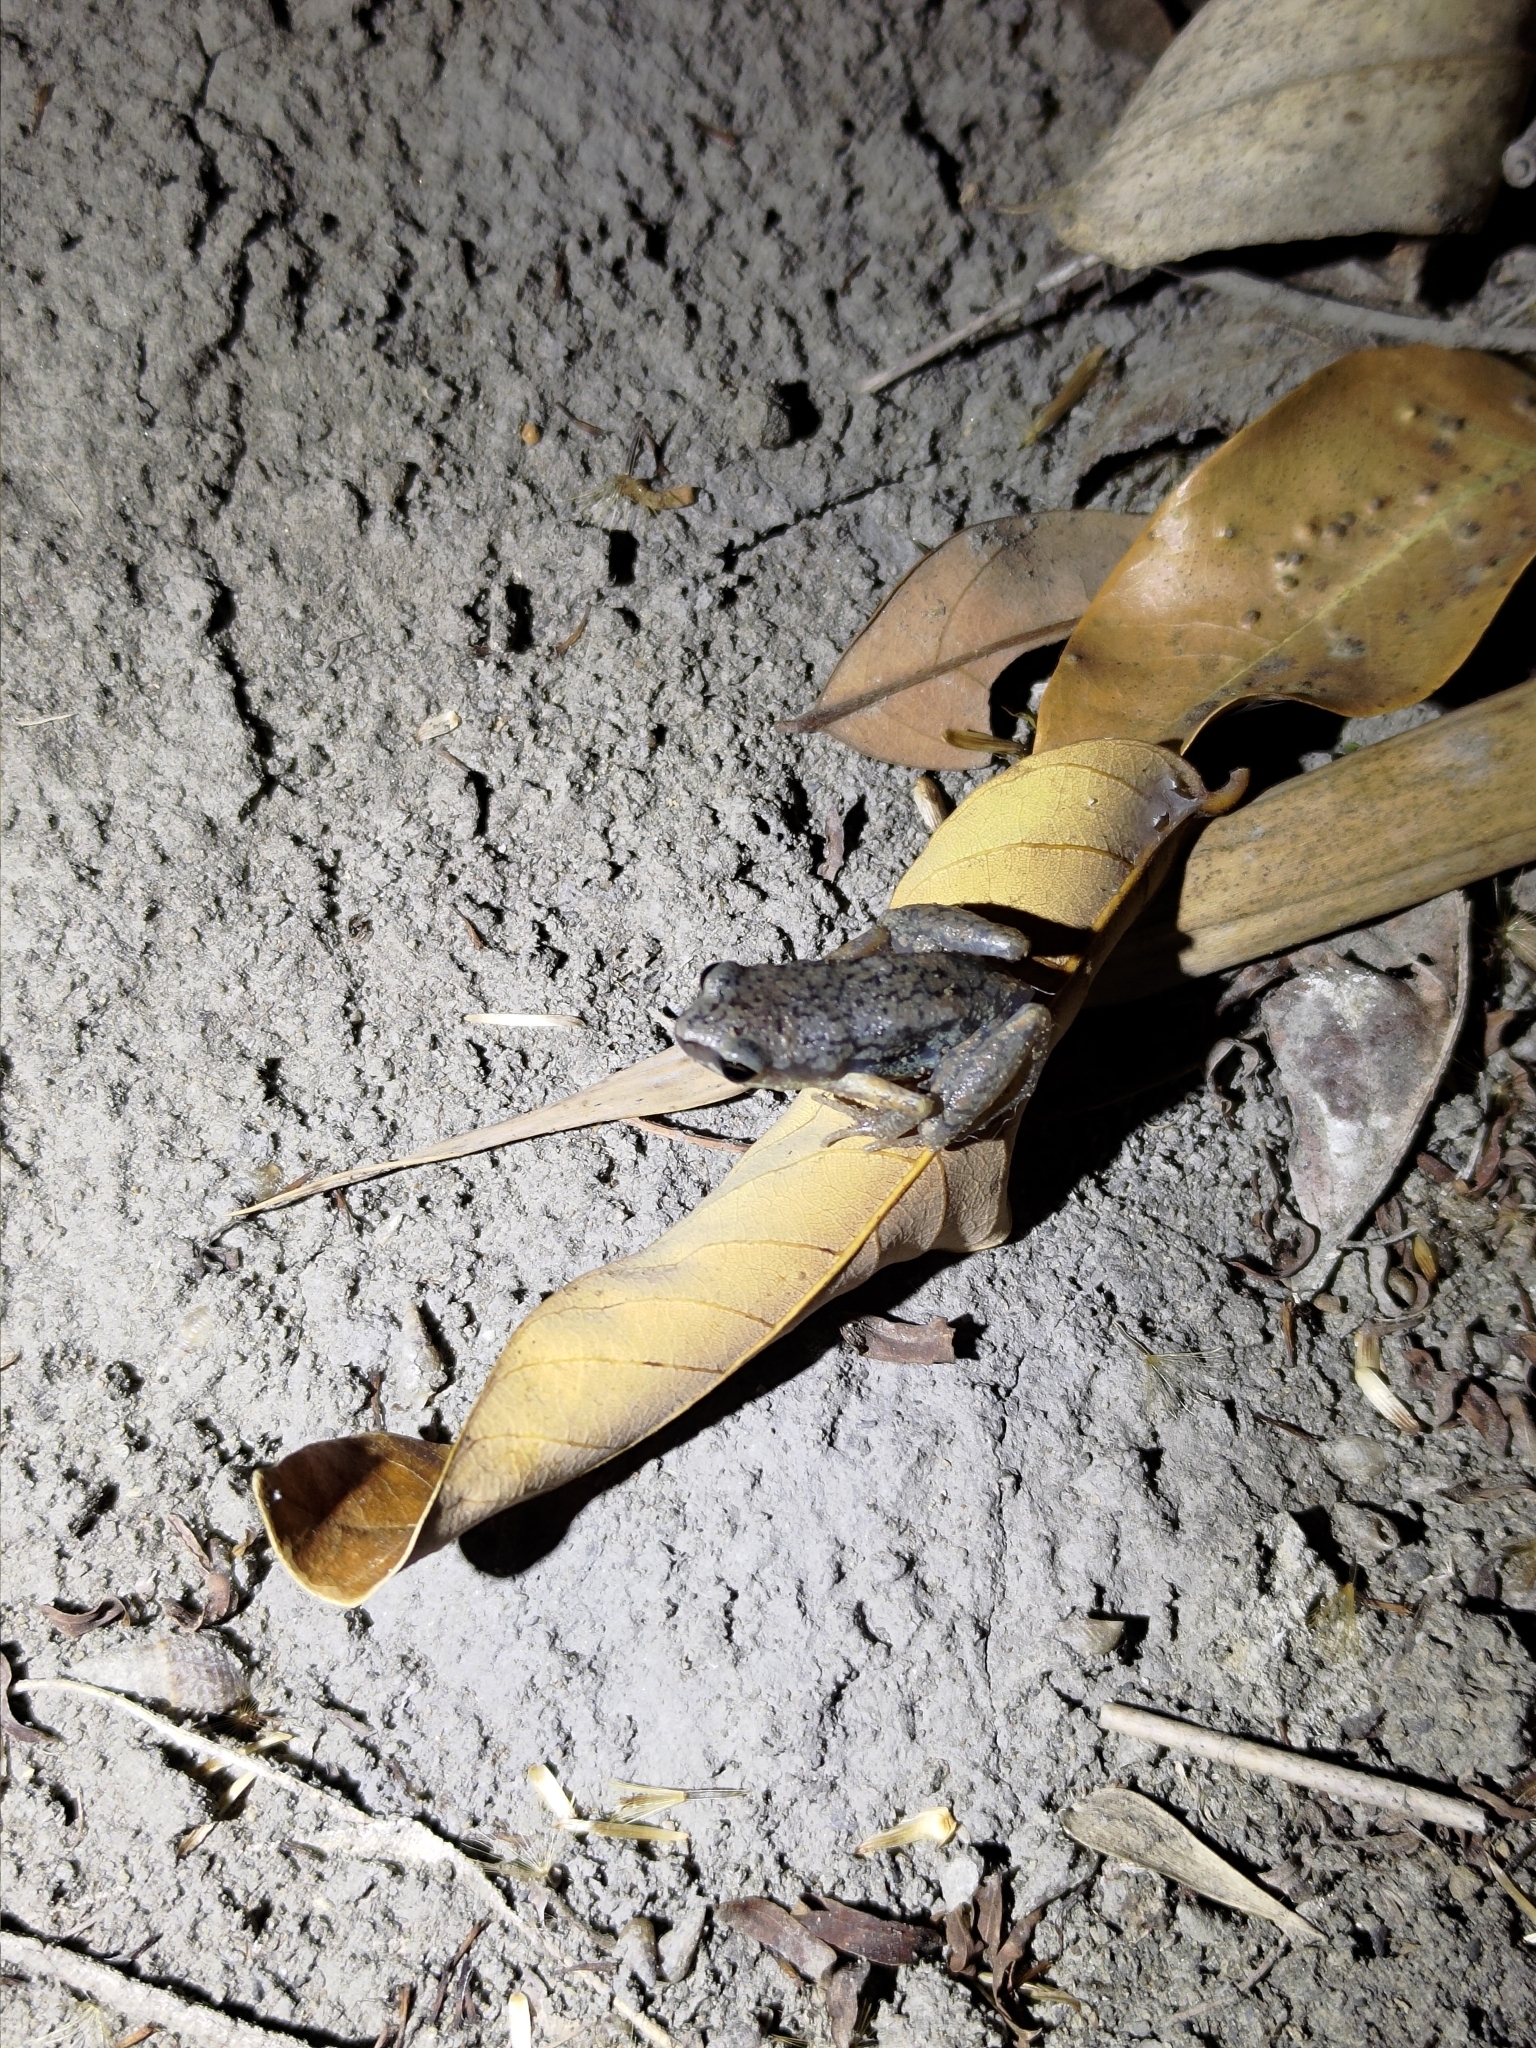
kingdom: Animalia
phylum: Chordata
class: Amphibia
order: Anura
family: Microhylidae
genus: Micryletta
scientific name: Micryletta steinegeri
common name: Stejneger's paddy frog
